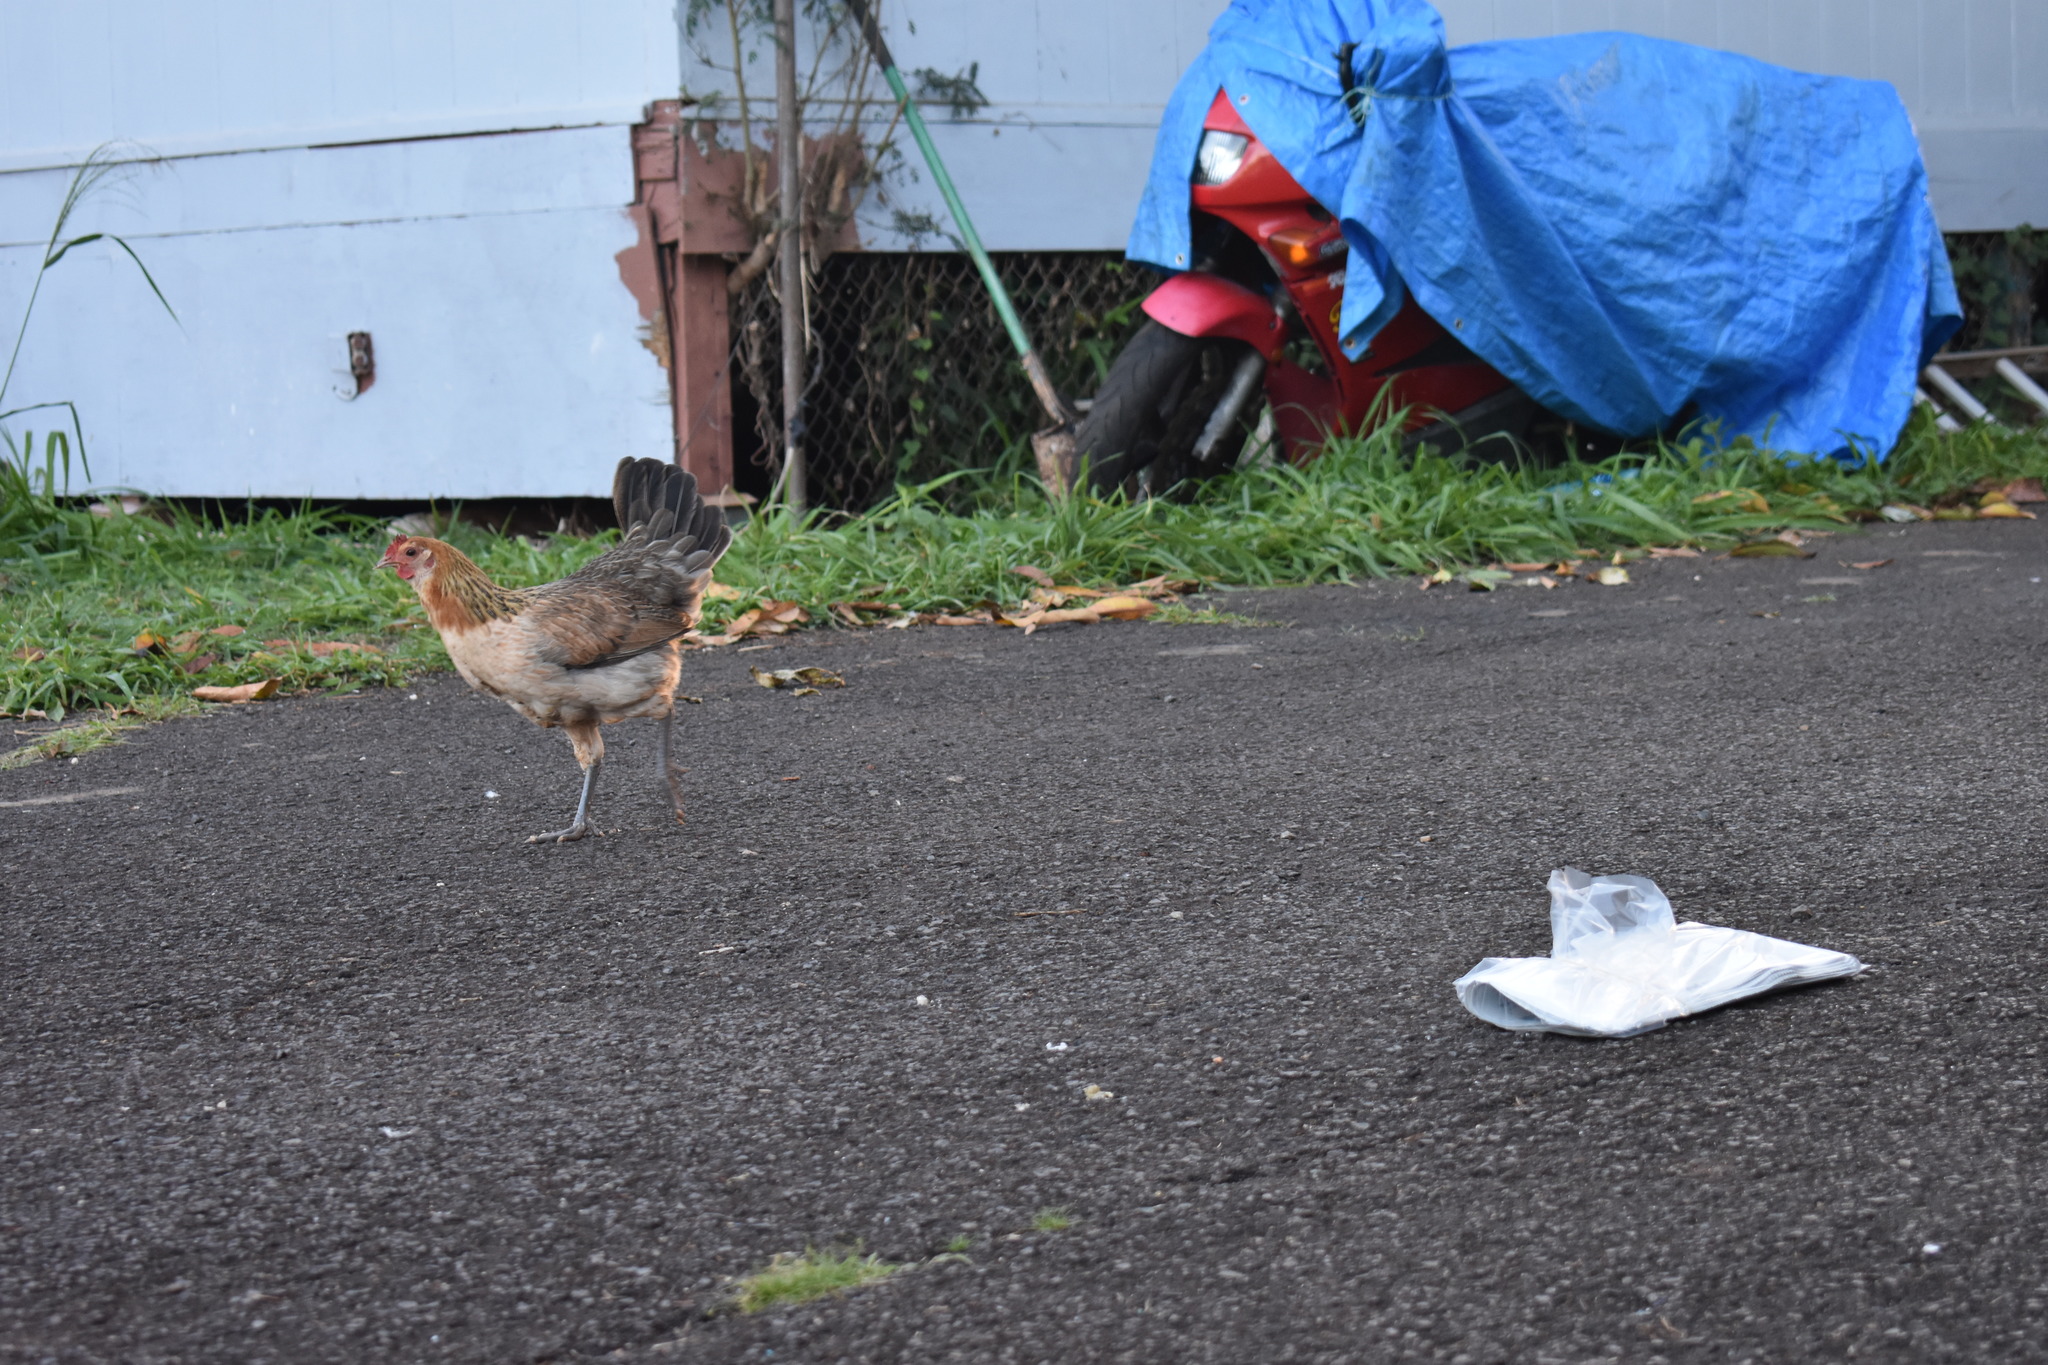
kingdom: Animalia
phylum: Chordata
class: Aves
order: Galliformes
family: Phasianidae
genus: Gallus
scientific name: Gallus gallus
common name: Red junglefowl
